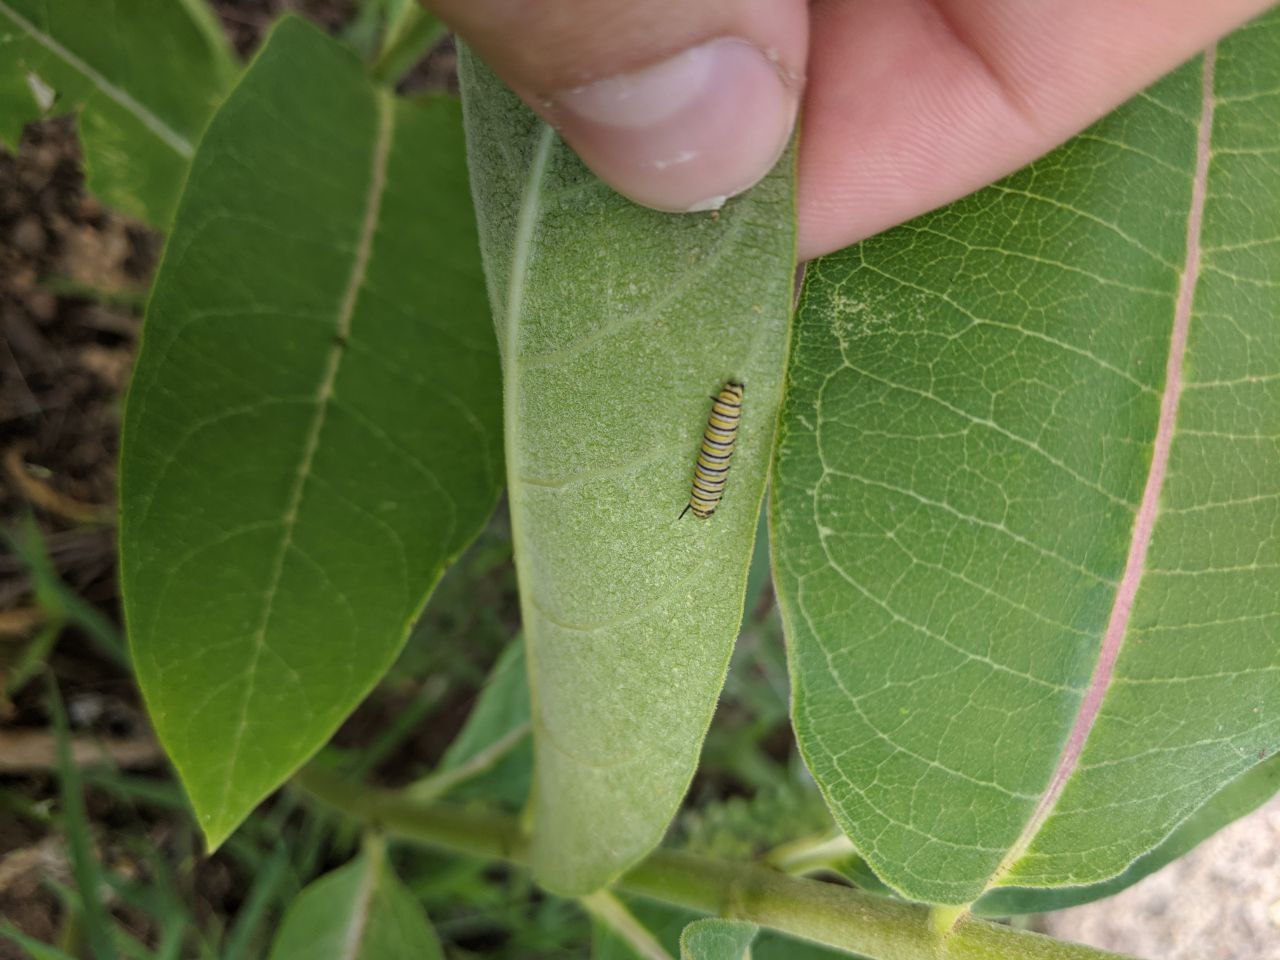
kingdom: Animalia
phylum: Arthropoda
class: Insecta
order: Lepidoptera
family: Nymphalidae
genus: Danaus
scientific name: Danaus plexippus
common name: Monarch
